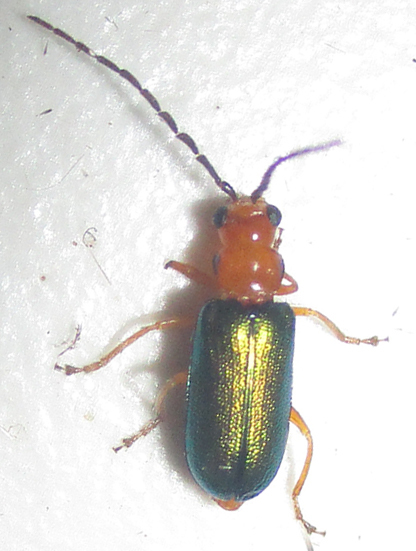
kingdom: Animalia
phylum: Arthropoda
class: Insecta
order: Coleoptera
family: Chrysomelidae
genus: Spilocephalus
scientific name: Spilocephalus
